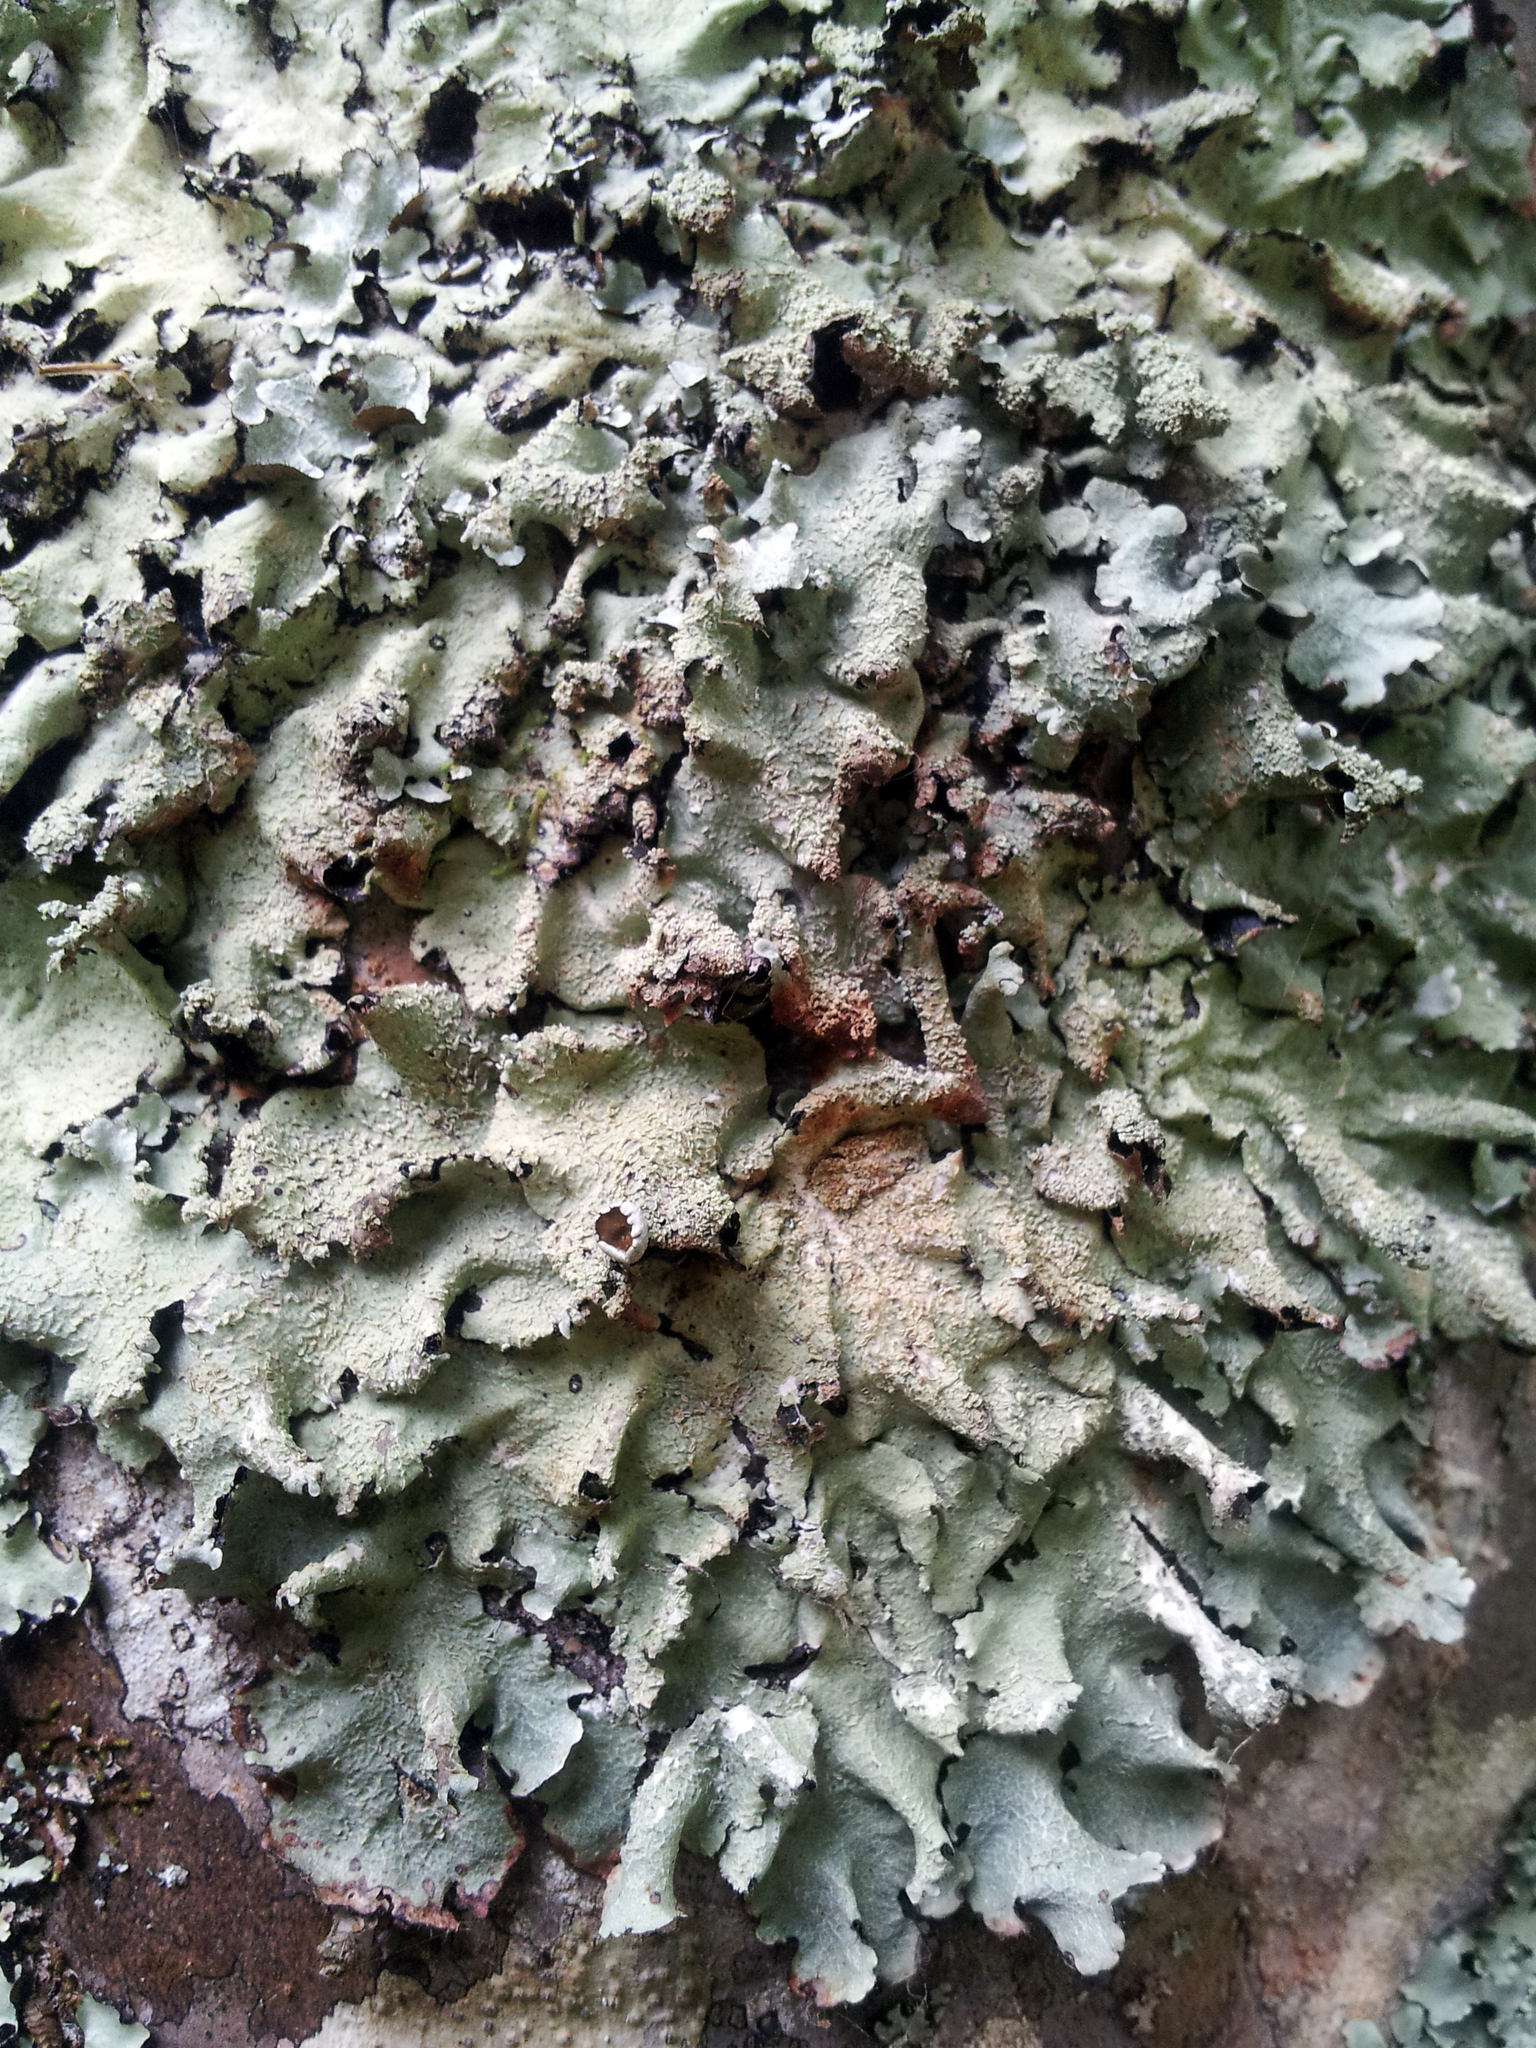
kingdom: Fungi
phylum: Ascomycota
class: Lecanoromycetes
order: Lecanorales
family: Parmeliaceae
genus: Parmotrema
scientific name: Parmotrema austrocetratum
